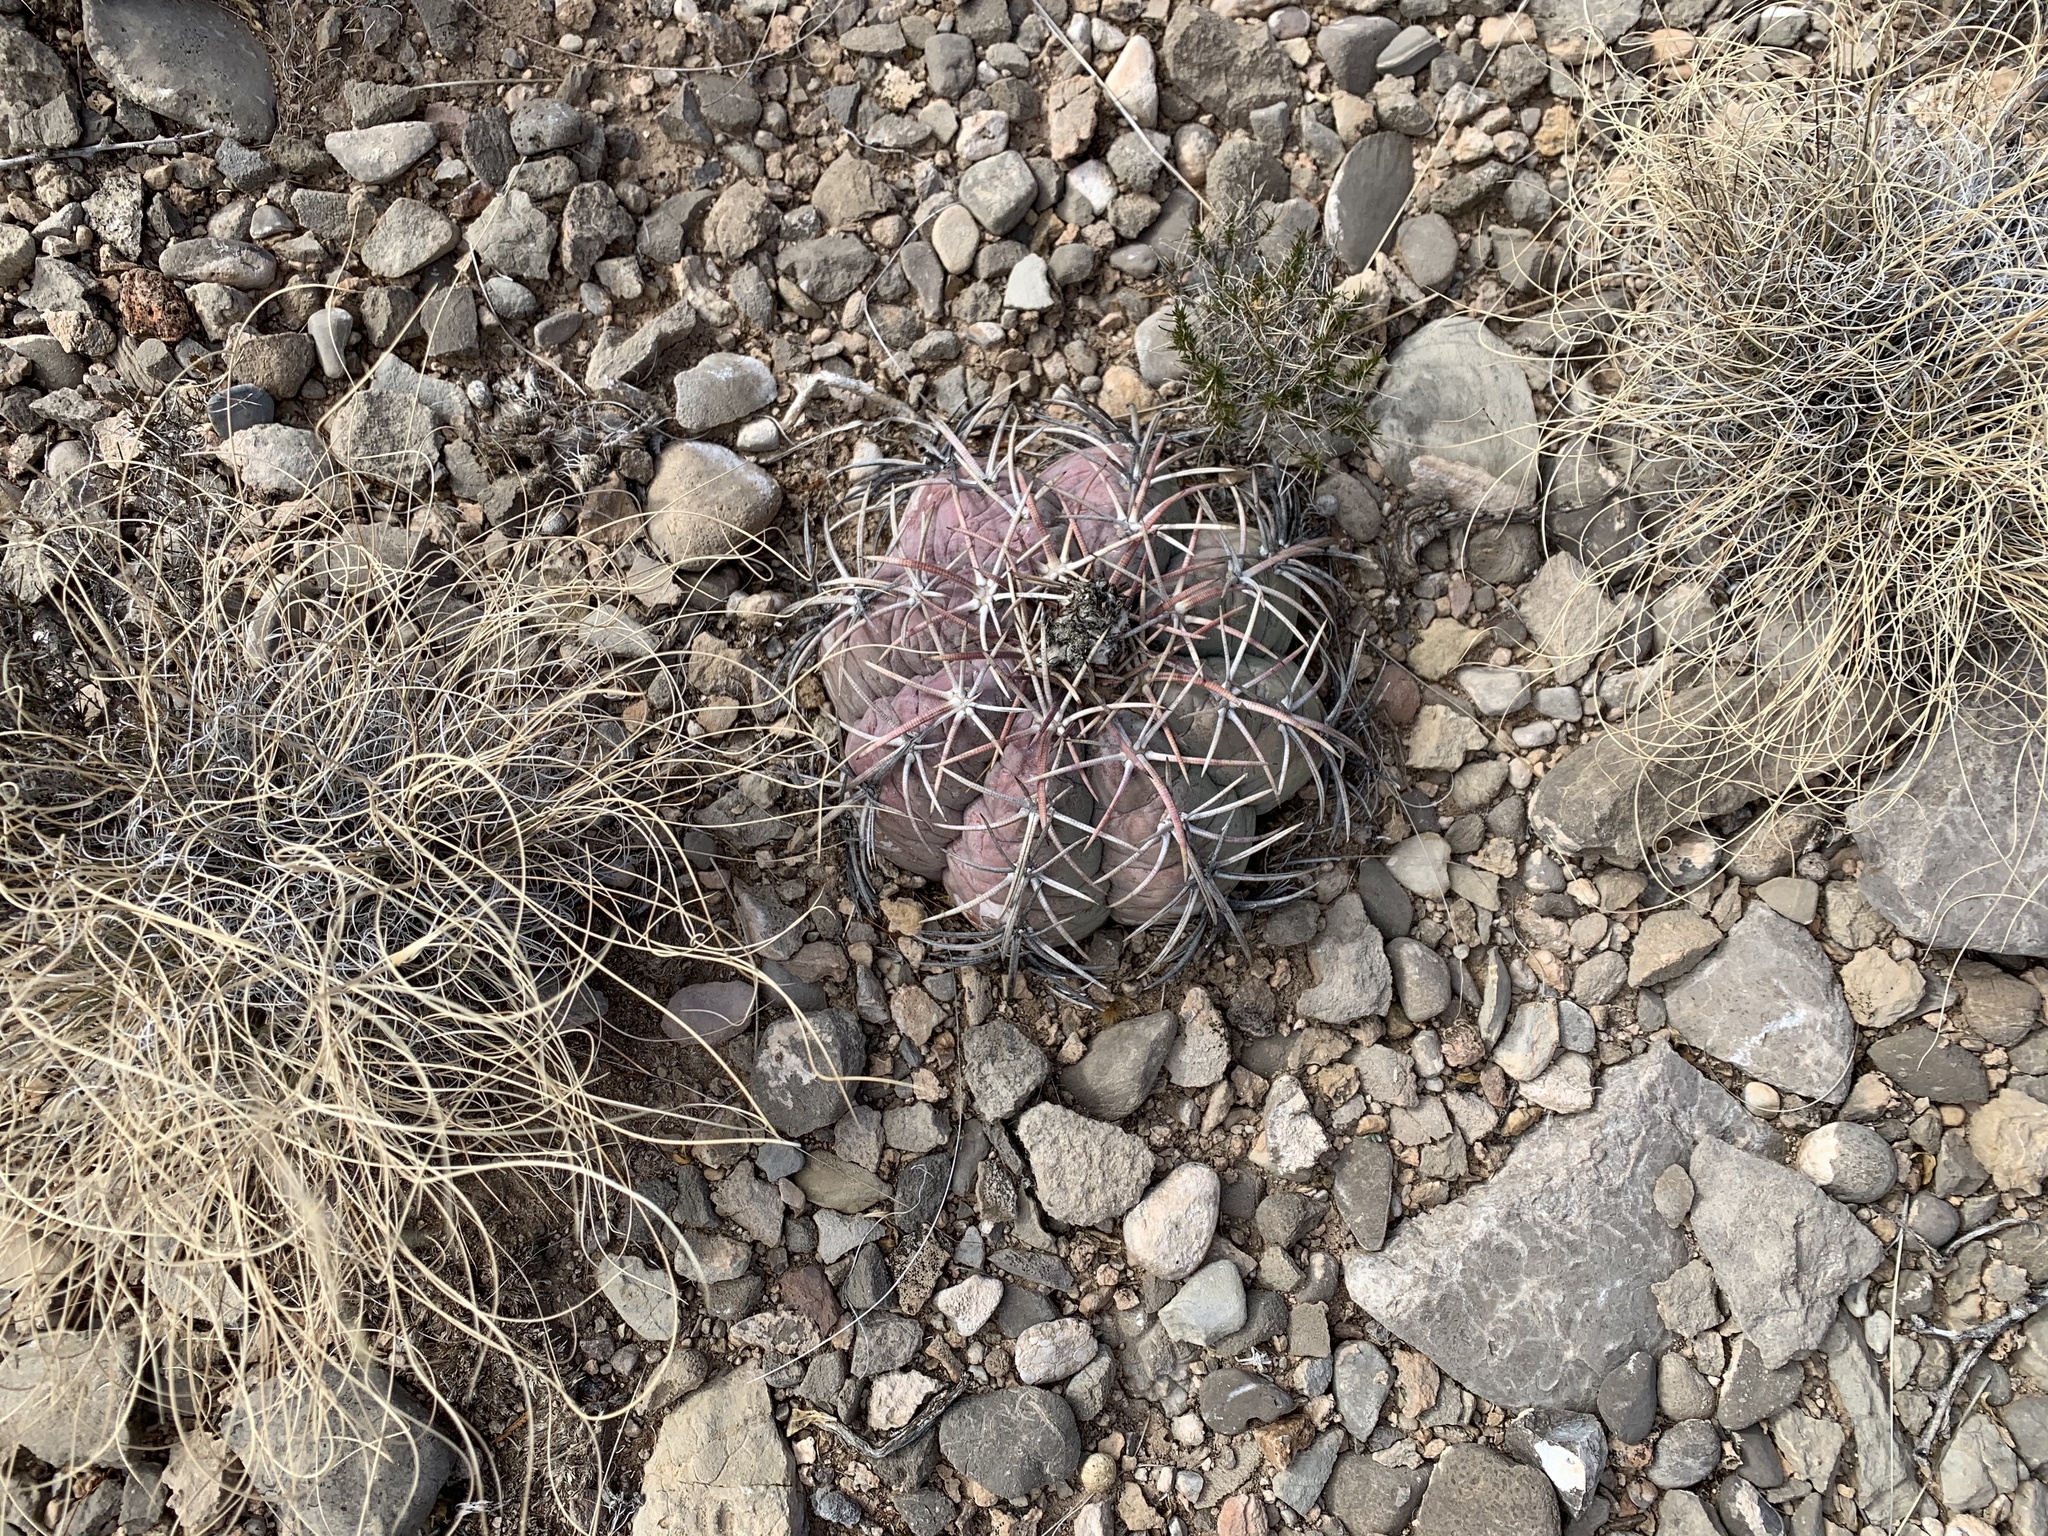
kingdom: Plantae
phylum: Tracheophyta
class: Magnoliopsida
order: Caryophyllales
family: Cactaceae
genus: Echinocactus
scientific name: Echinocactus horizonthalonius
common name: Devilshead
